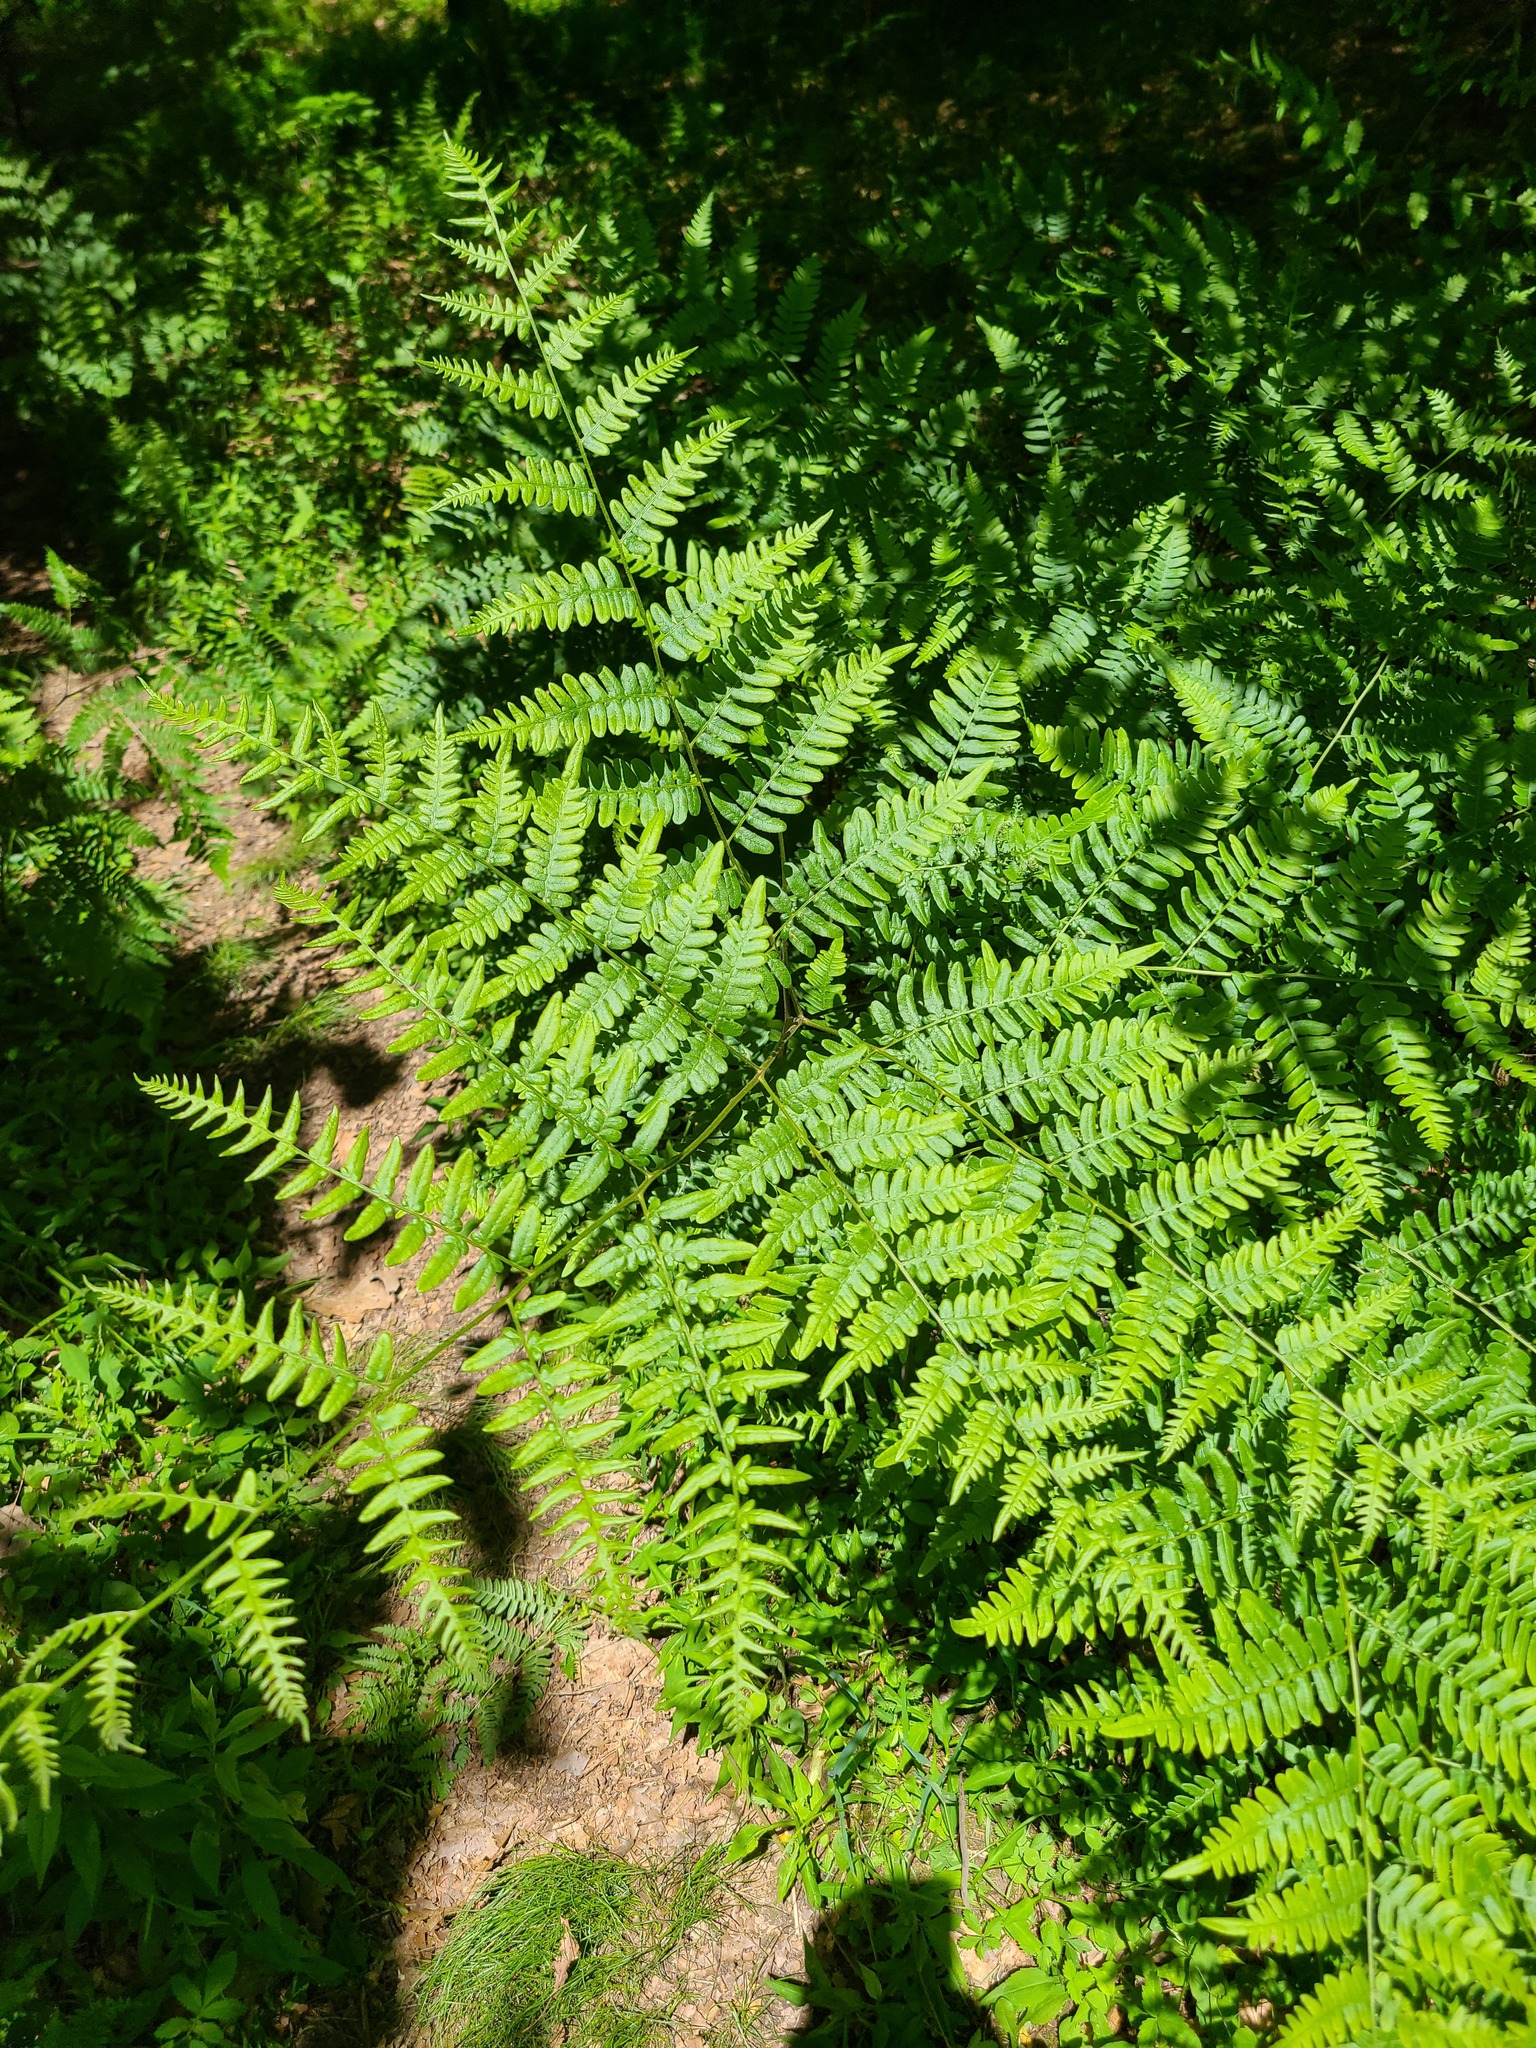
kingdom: Plantae
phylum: Tracheophyta
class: Polypodiopsida
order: Polypodiales
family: Dennstaedtiaceae
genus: Pteridium
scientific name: Pteridium aquilinum
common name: Bracken
